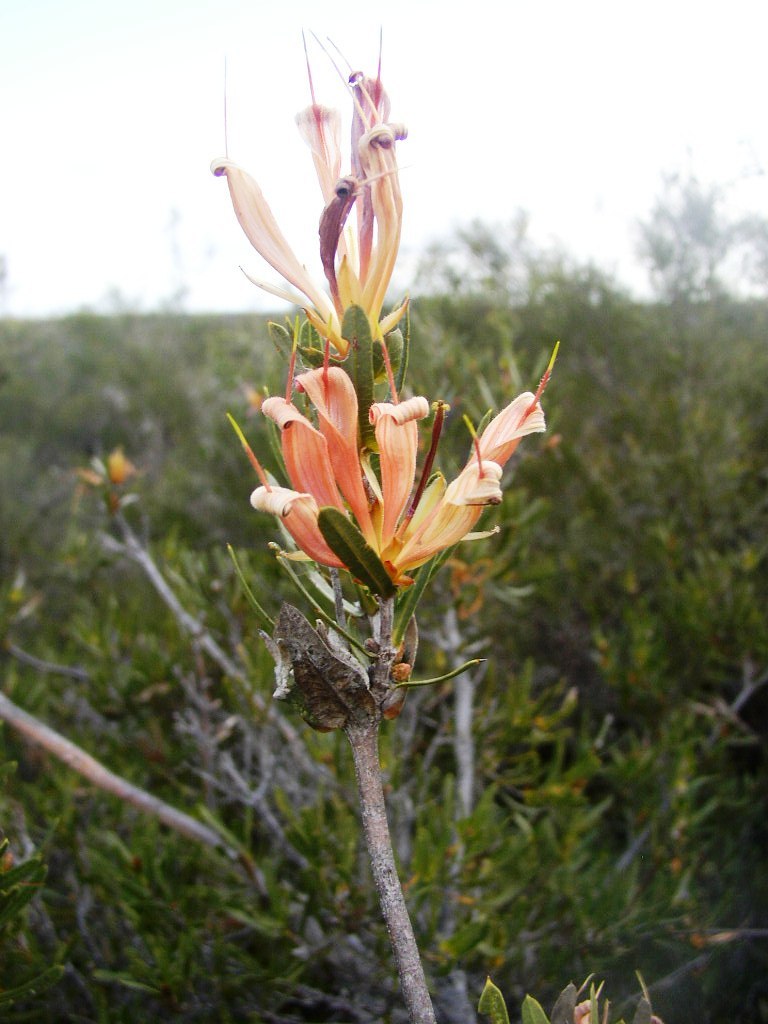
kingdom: Plantae
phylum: Tracheophyta
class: Magnoliopsida
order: Proteales
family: Proteaceae
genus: Lambertia
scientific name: Lambertia multiflora
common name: Many-flowered honeysuckle
